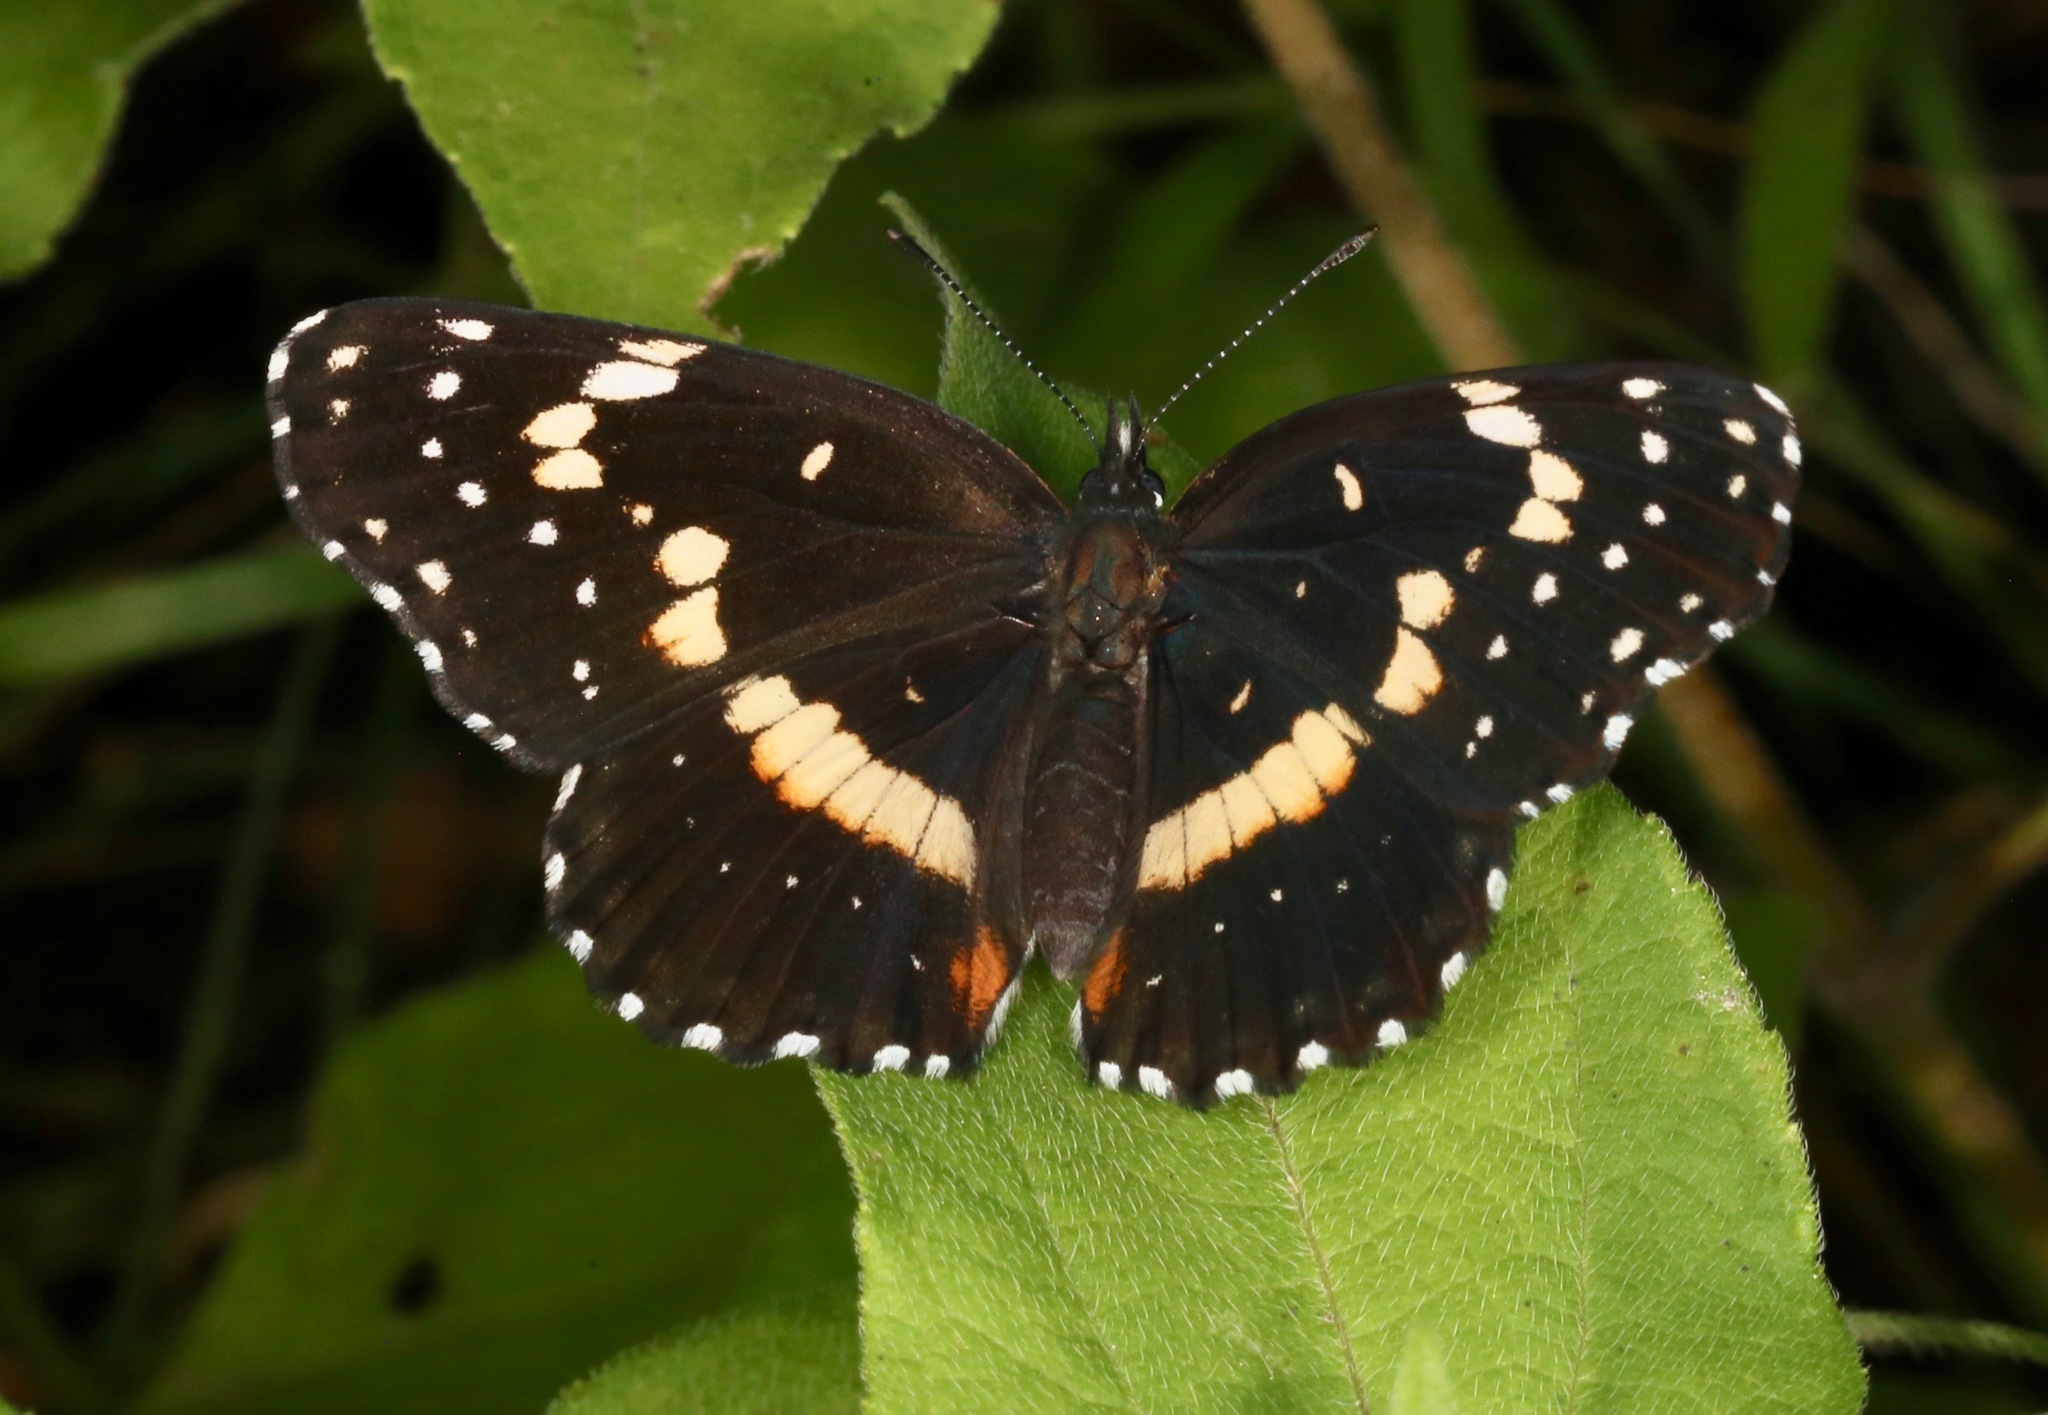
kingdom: Animalia
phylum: Arthropoda
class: Insecta
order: Lepidoptera
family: Nymphalidae
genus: Chlosyne
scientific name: Chlosyne lacinia
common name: Bordered patch
